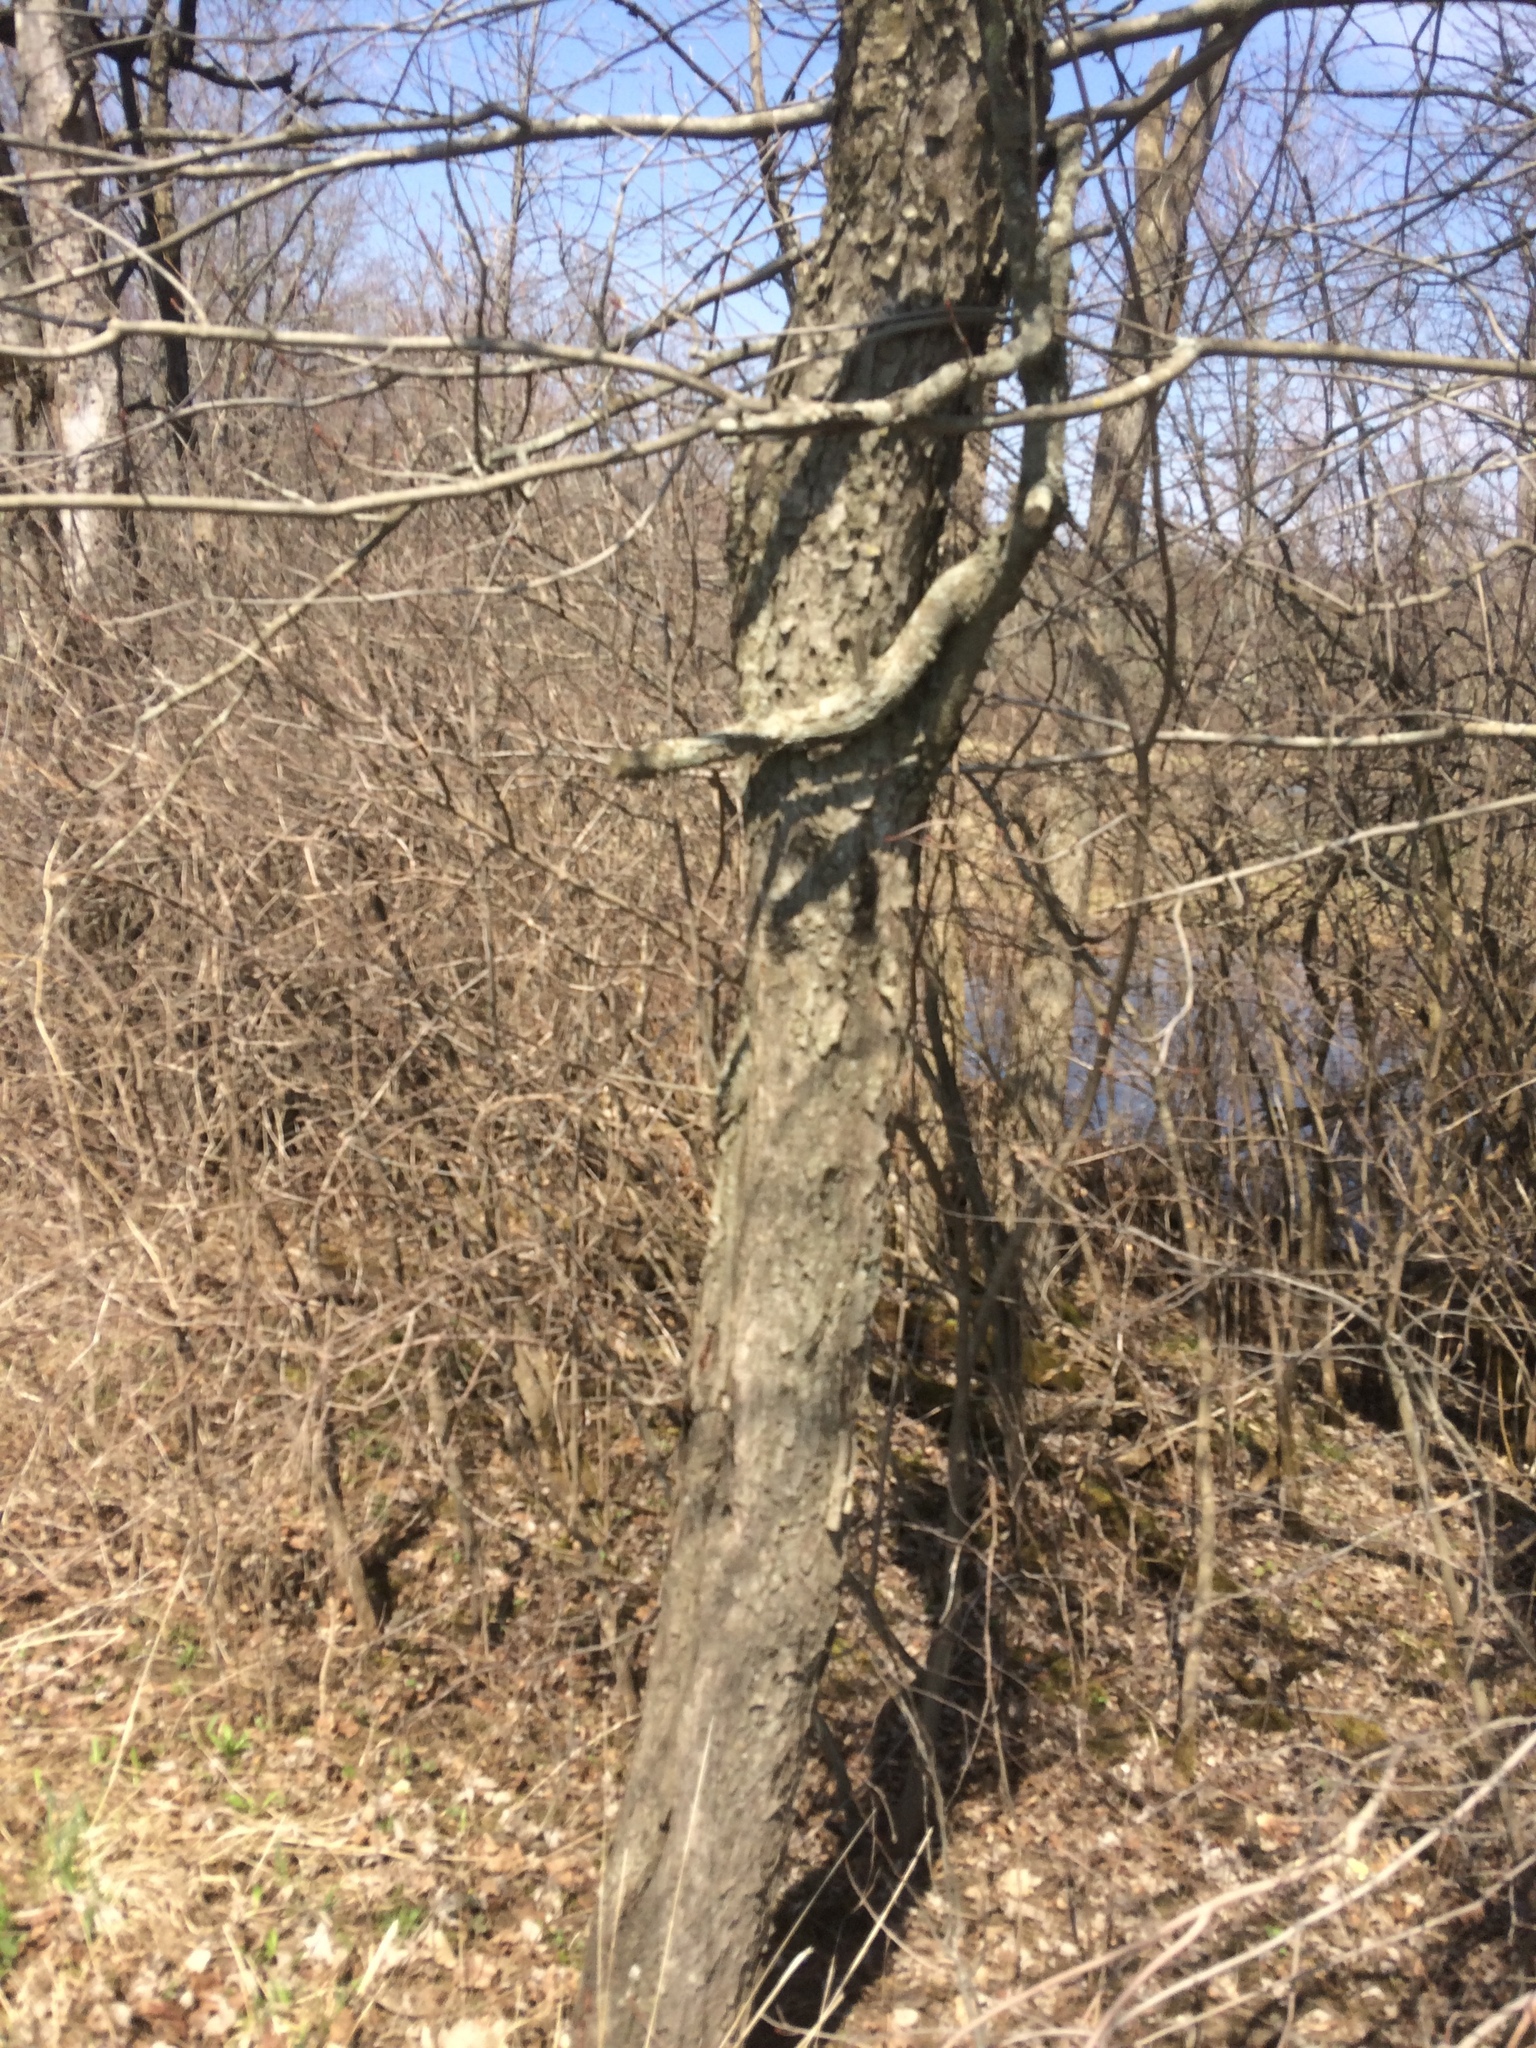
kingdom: Plantae
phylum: Tracheophyta
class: Magnoliopsida
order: Rosales
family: Rosaceae
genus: Prunus
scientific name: Prunus serotina
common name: Black cherry
